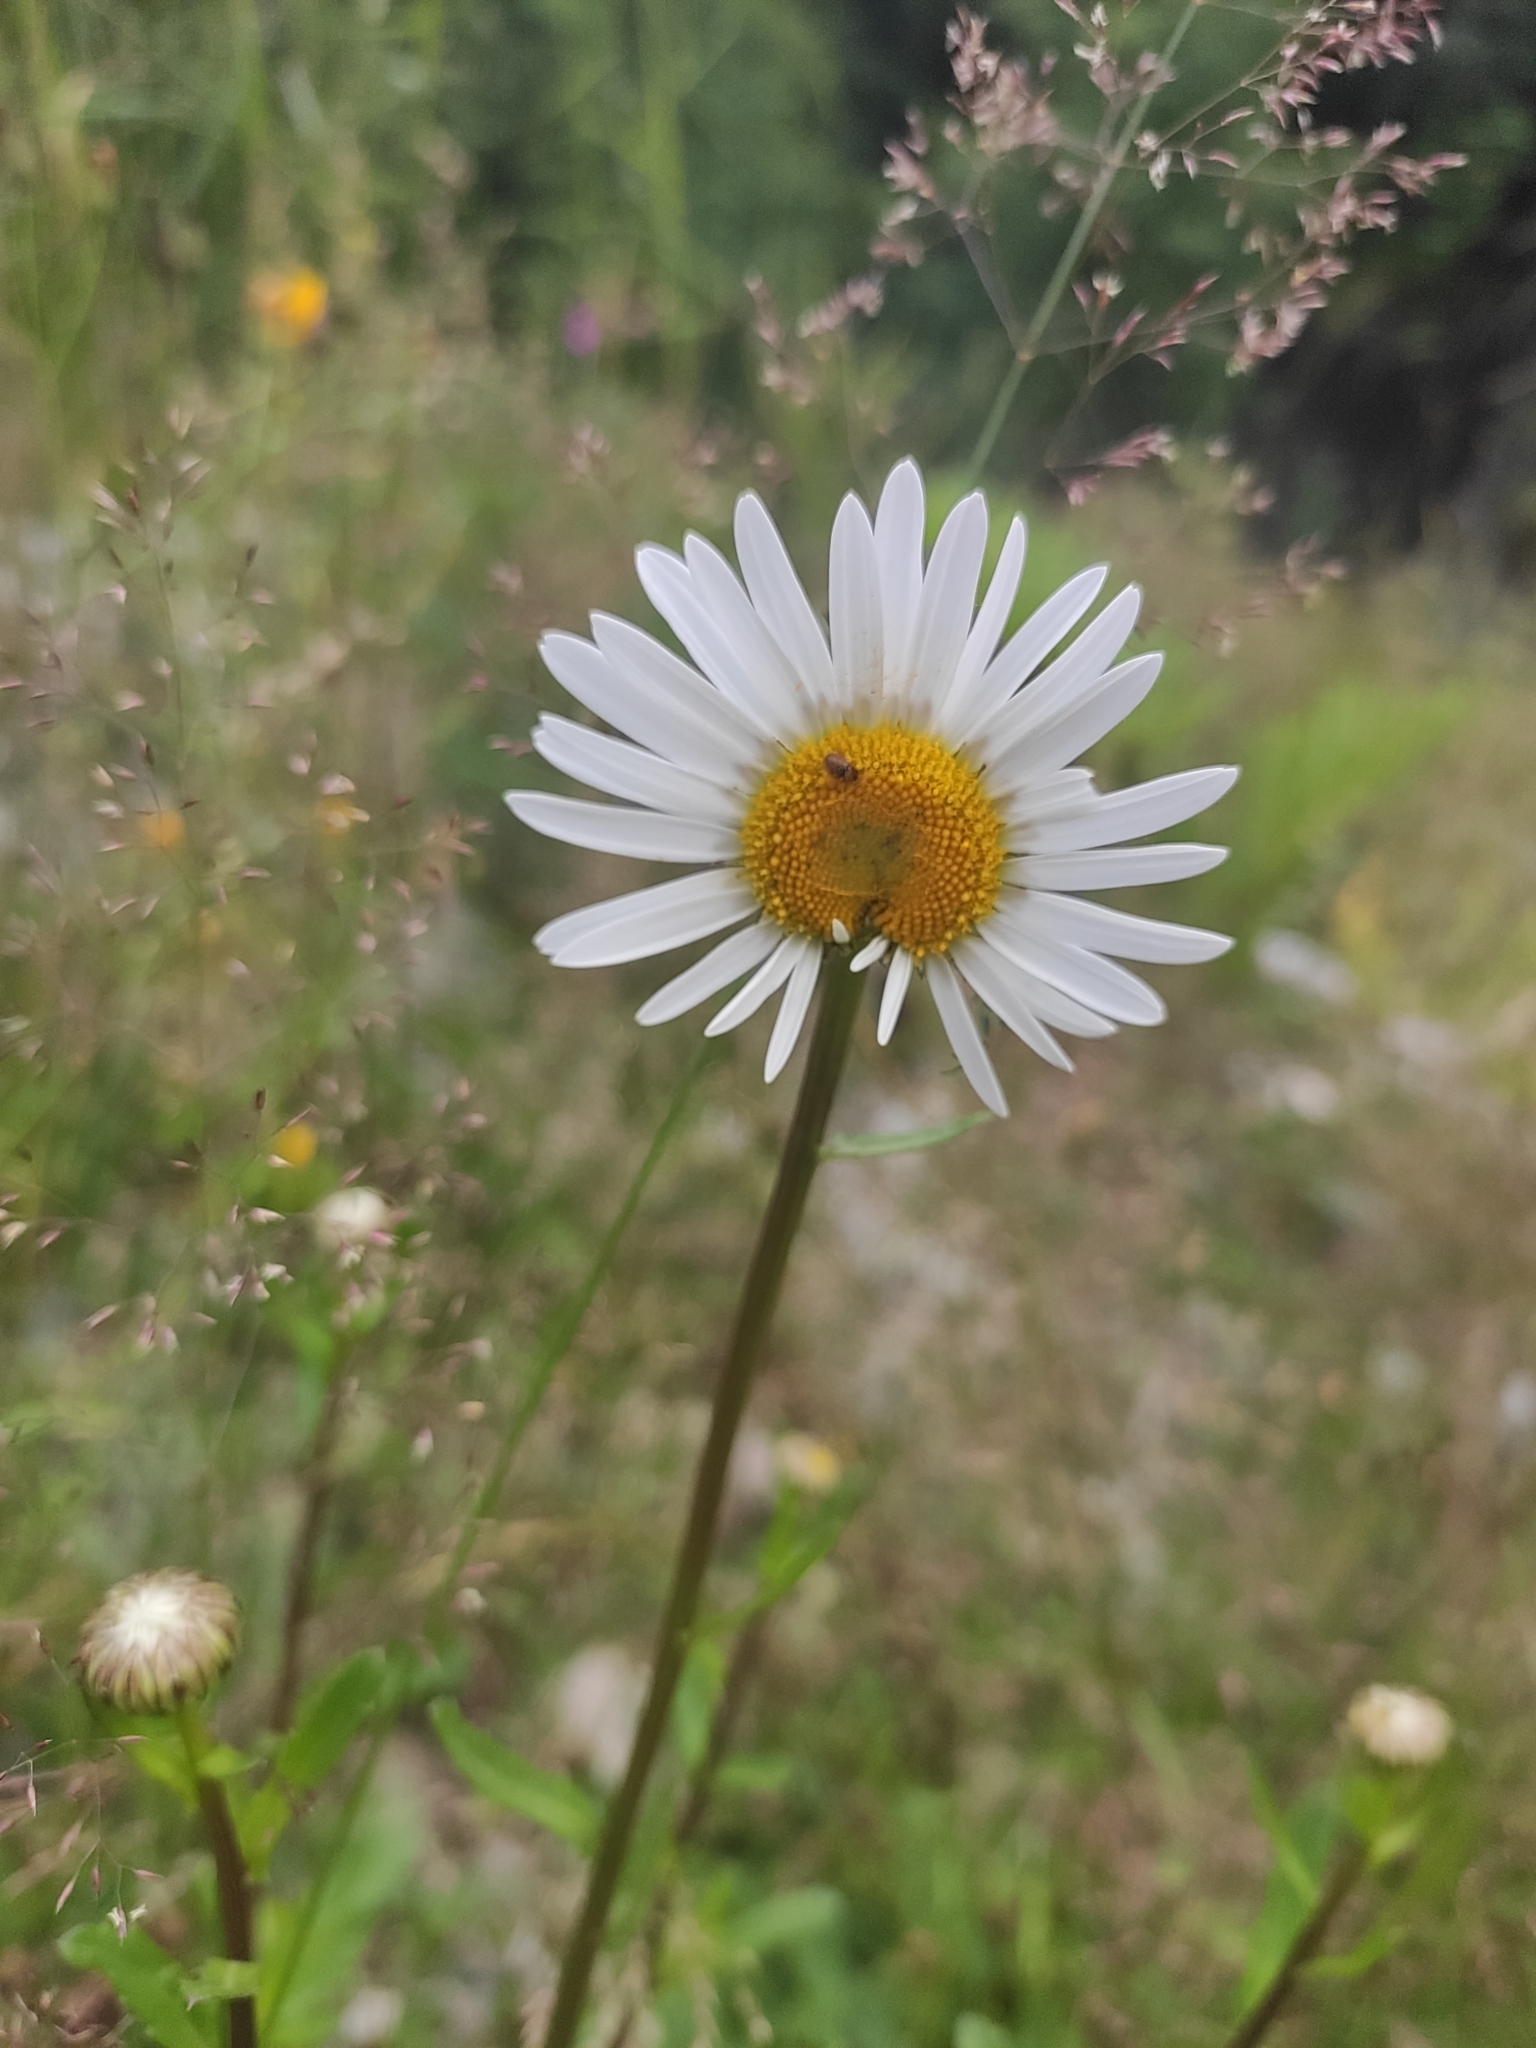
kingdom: Plantae
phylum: Tracheophyta
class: Magnoliopsida
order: Asterales
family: Asteraceae
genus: Leucanthemum
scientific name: Leucanthemum vulgare
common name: Oxeye daisy
